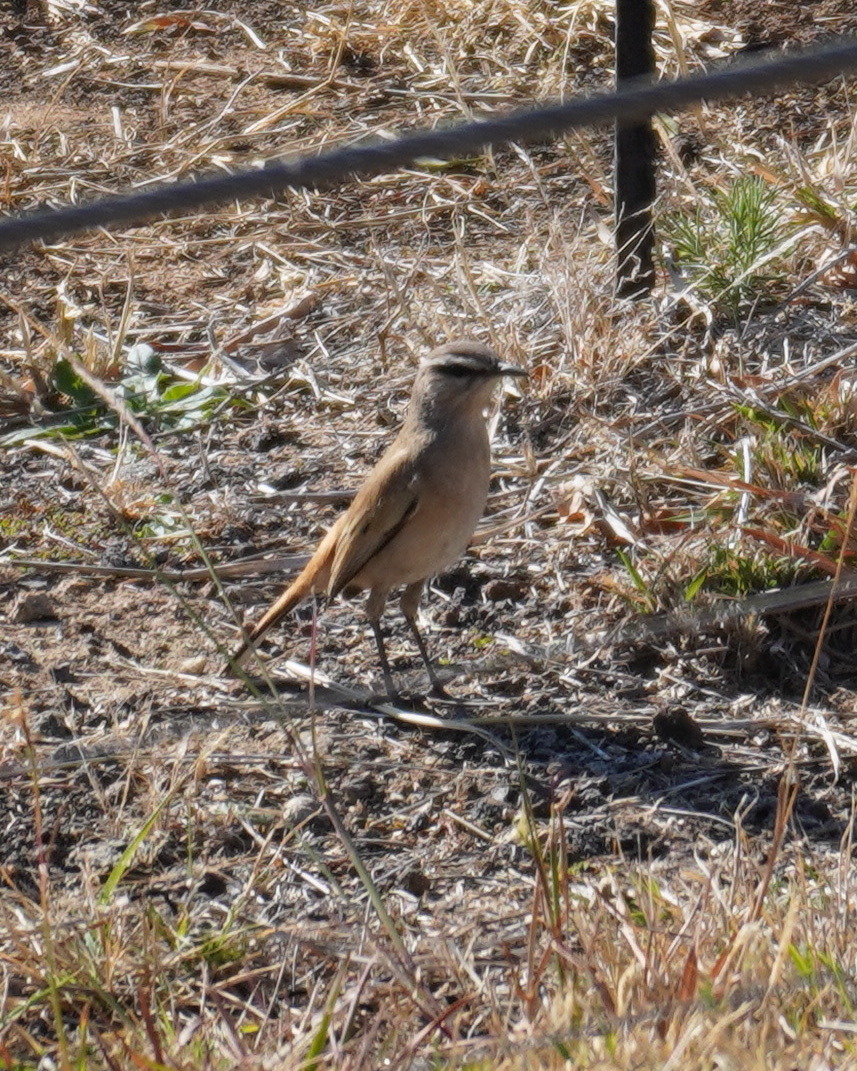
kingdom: Animalia
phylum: Chordata
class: Aves
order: Passeriformes
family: Muscicapidae
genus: Erythropygia
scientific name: Erythropygia paena
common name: Kalahari scrub robin
